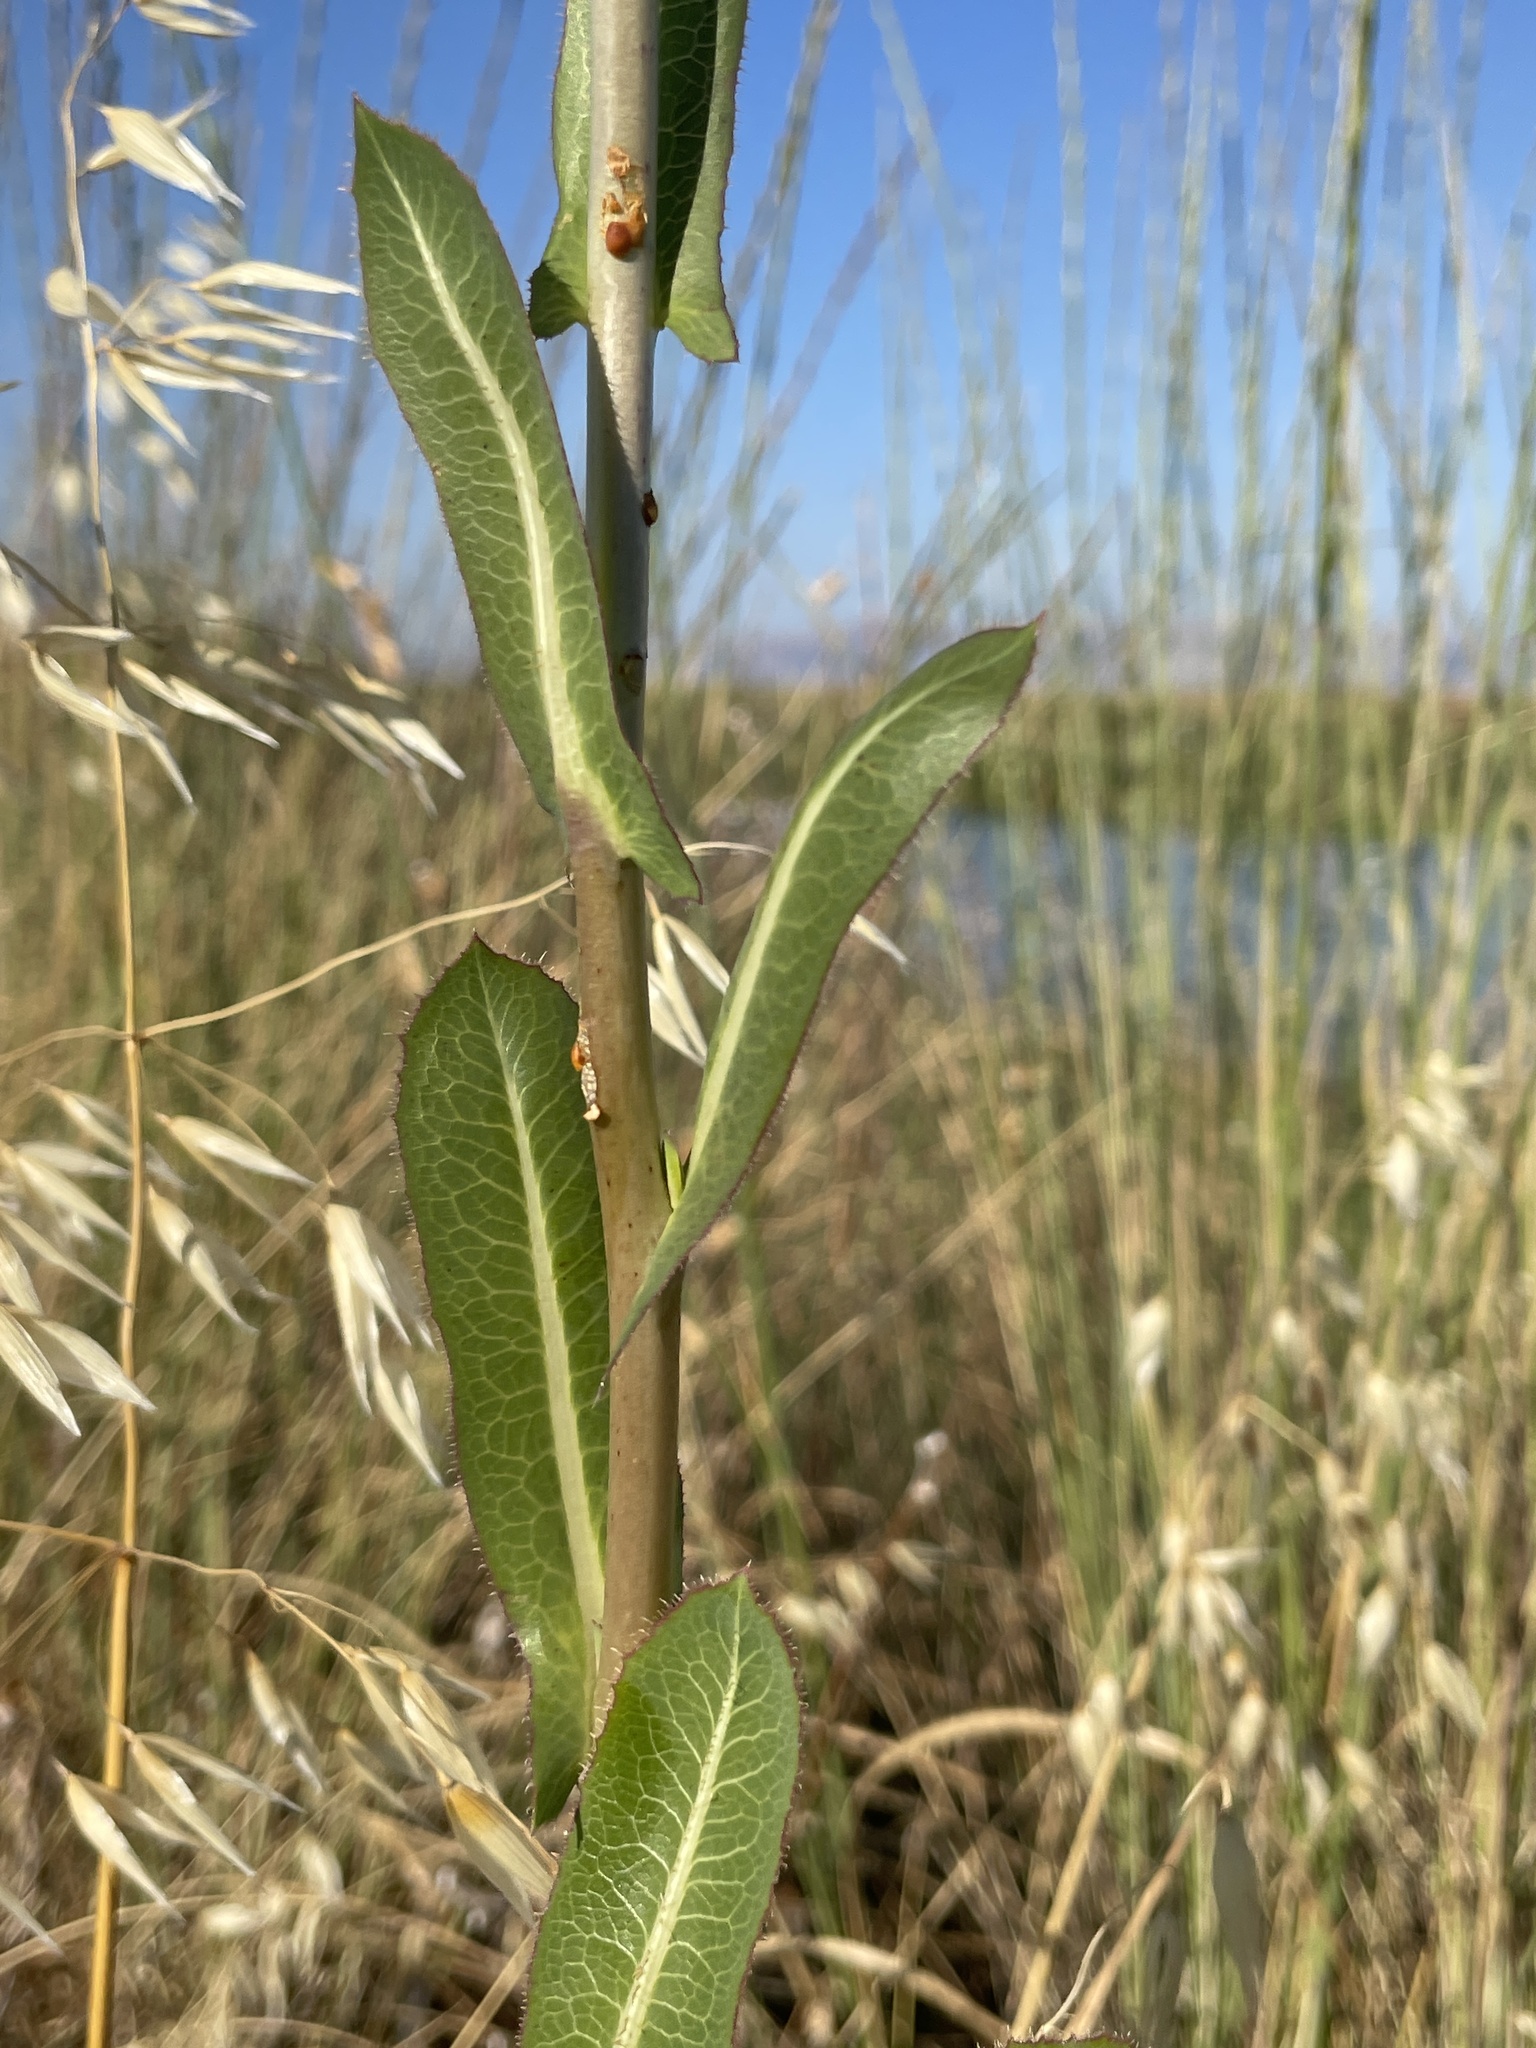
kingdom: Plantae
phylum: Tracheophyta
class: Magnoliopsida
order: Asterales
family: Asteraceae
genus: Lactuca
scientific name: Lactuca serriola
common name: Prickly lettuce
